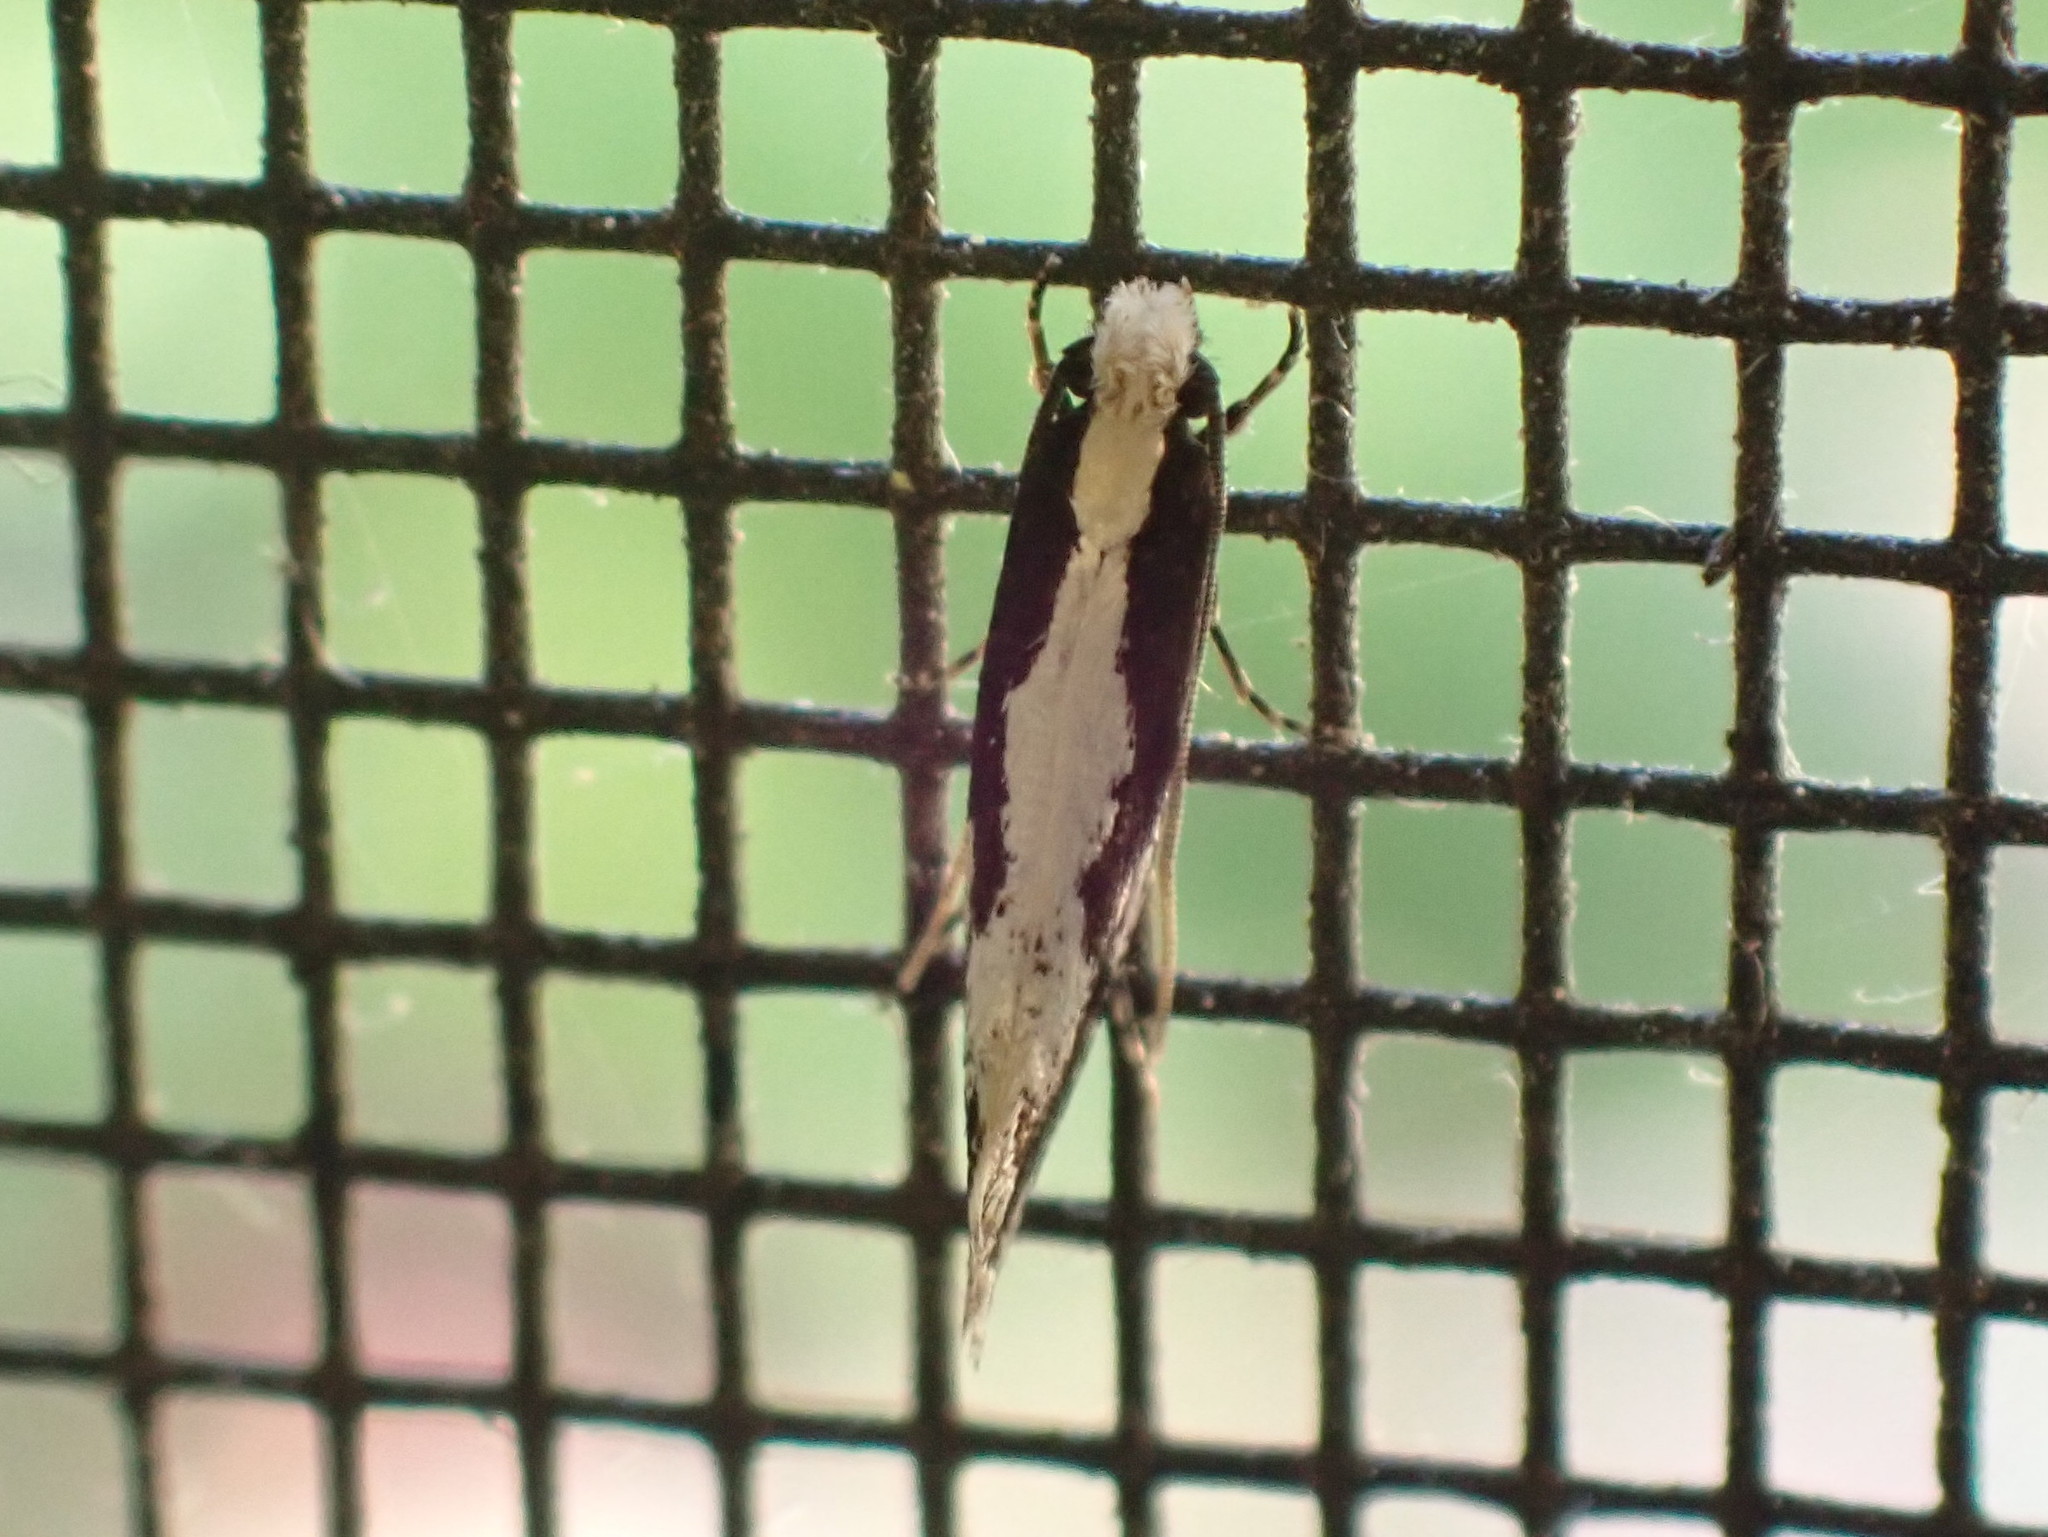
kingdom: Animalia
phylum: Arthropoda
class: Insecta
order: Lepidoptera
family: Tineidae
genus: Monopis
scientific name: Monopis dorsistrigella
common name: Skunkback monopis moth
